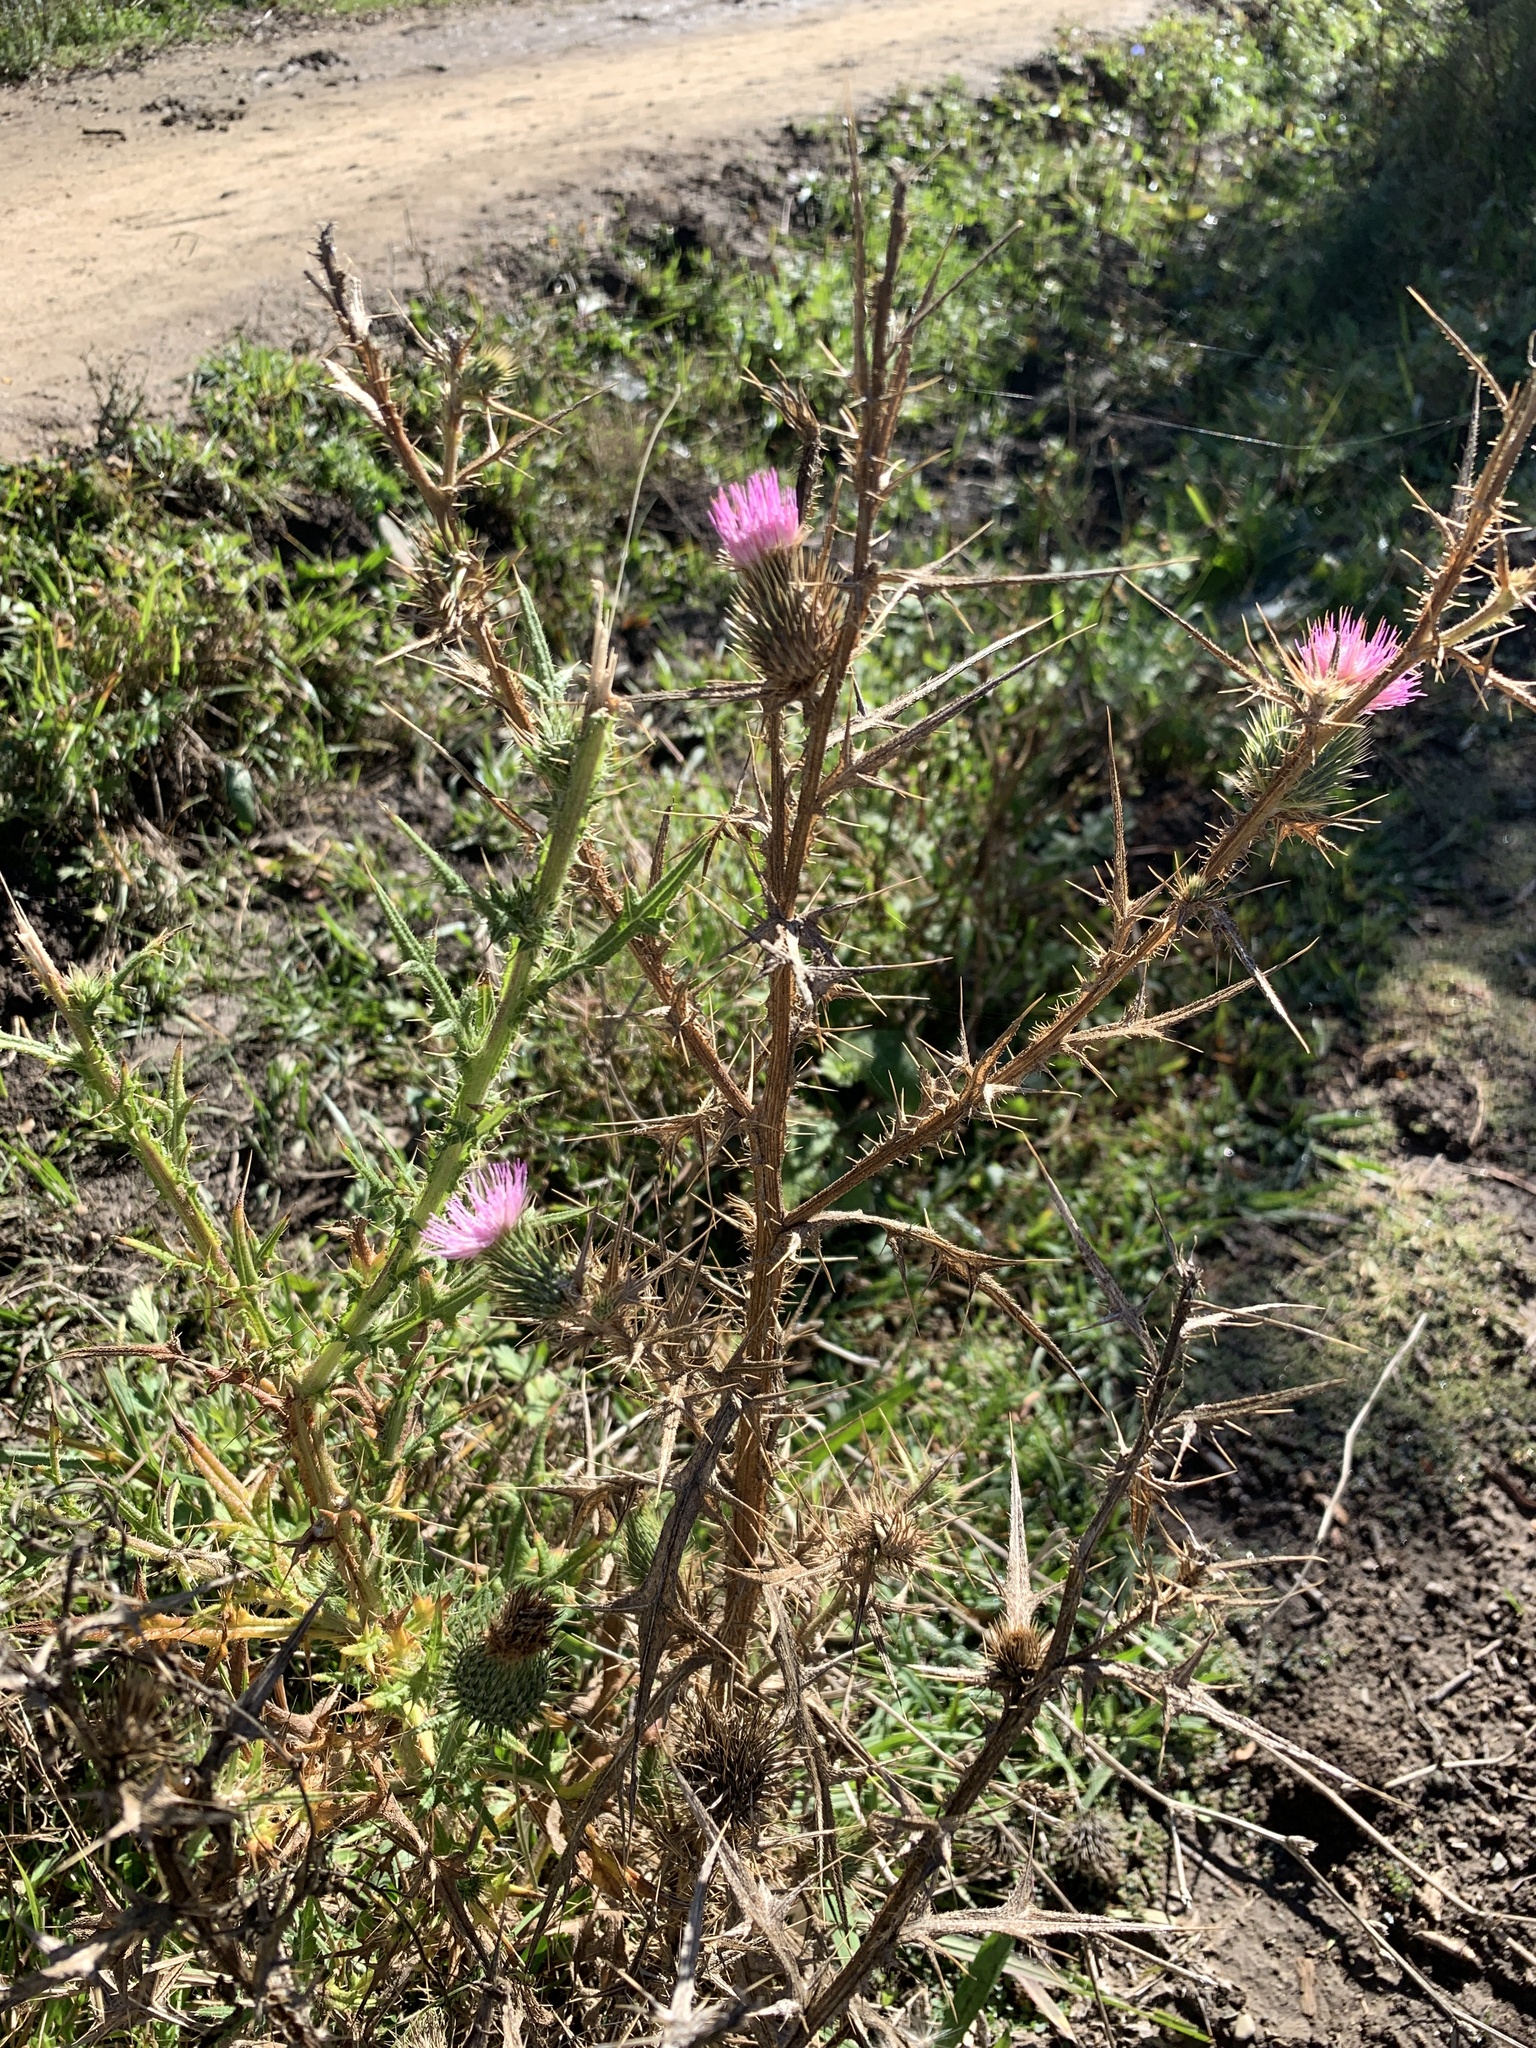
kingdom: Plantae
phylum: Tracheophyta
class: Magnoliopsida
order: Asterales
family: Asteraceae
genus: Cirsium
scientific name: Cirsium vulgare
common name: Bull thistle
